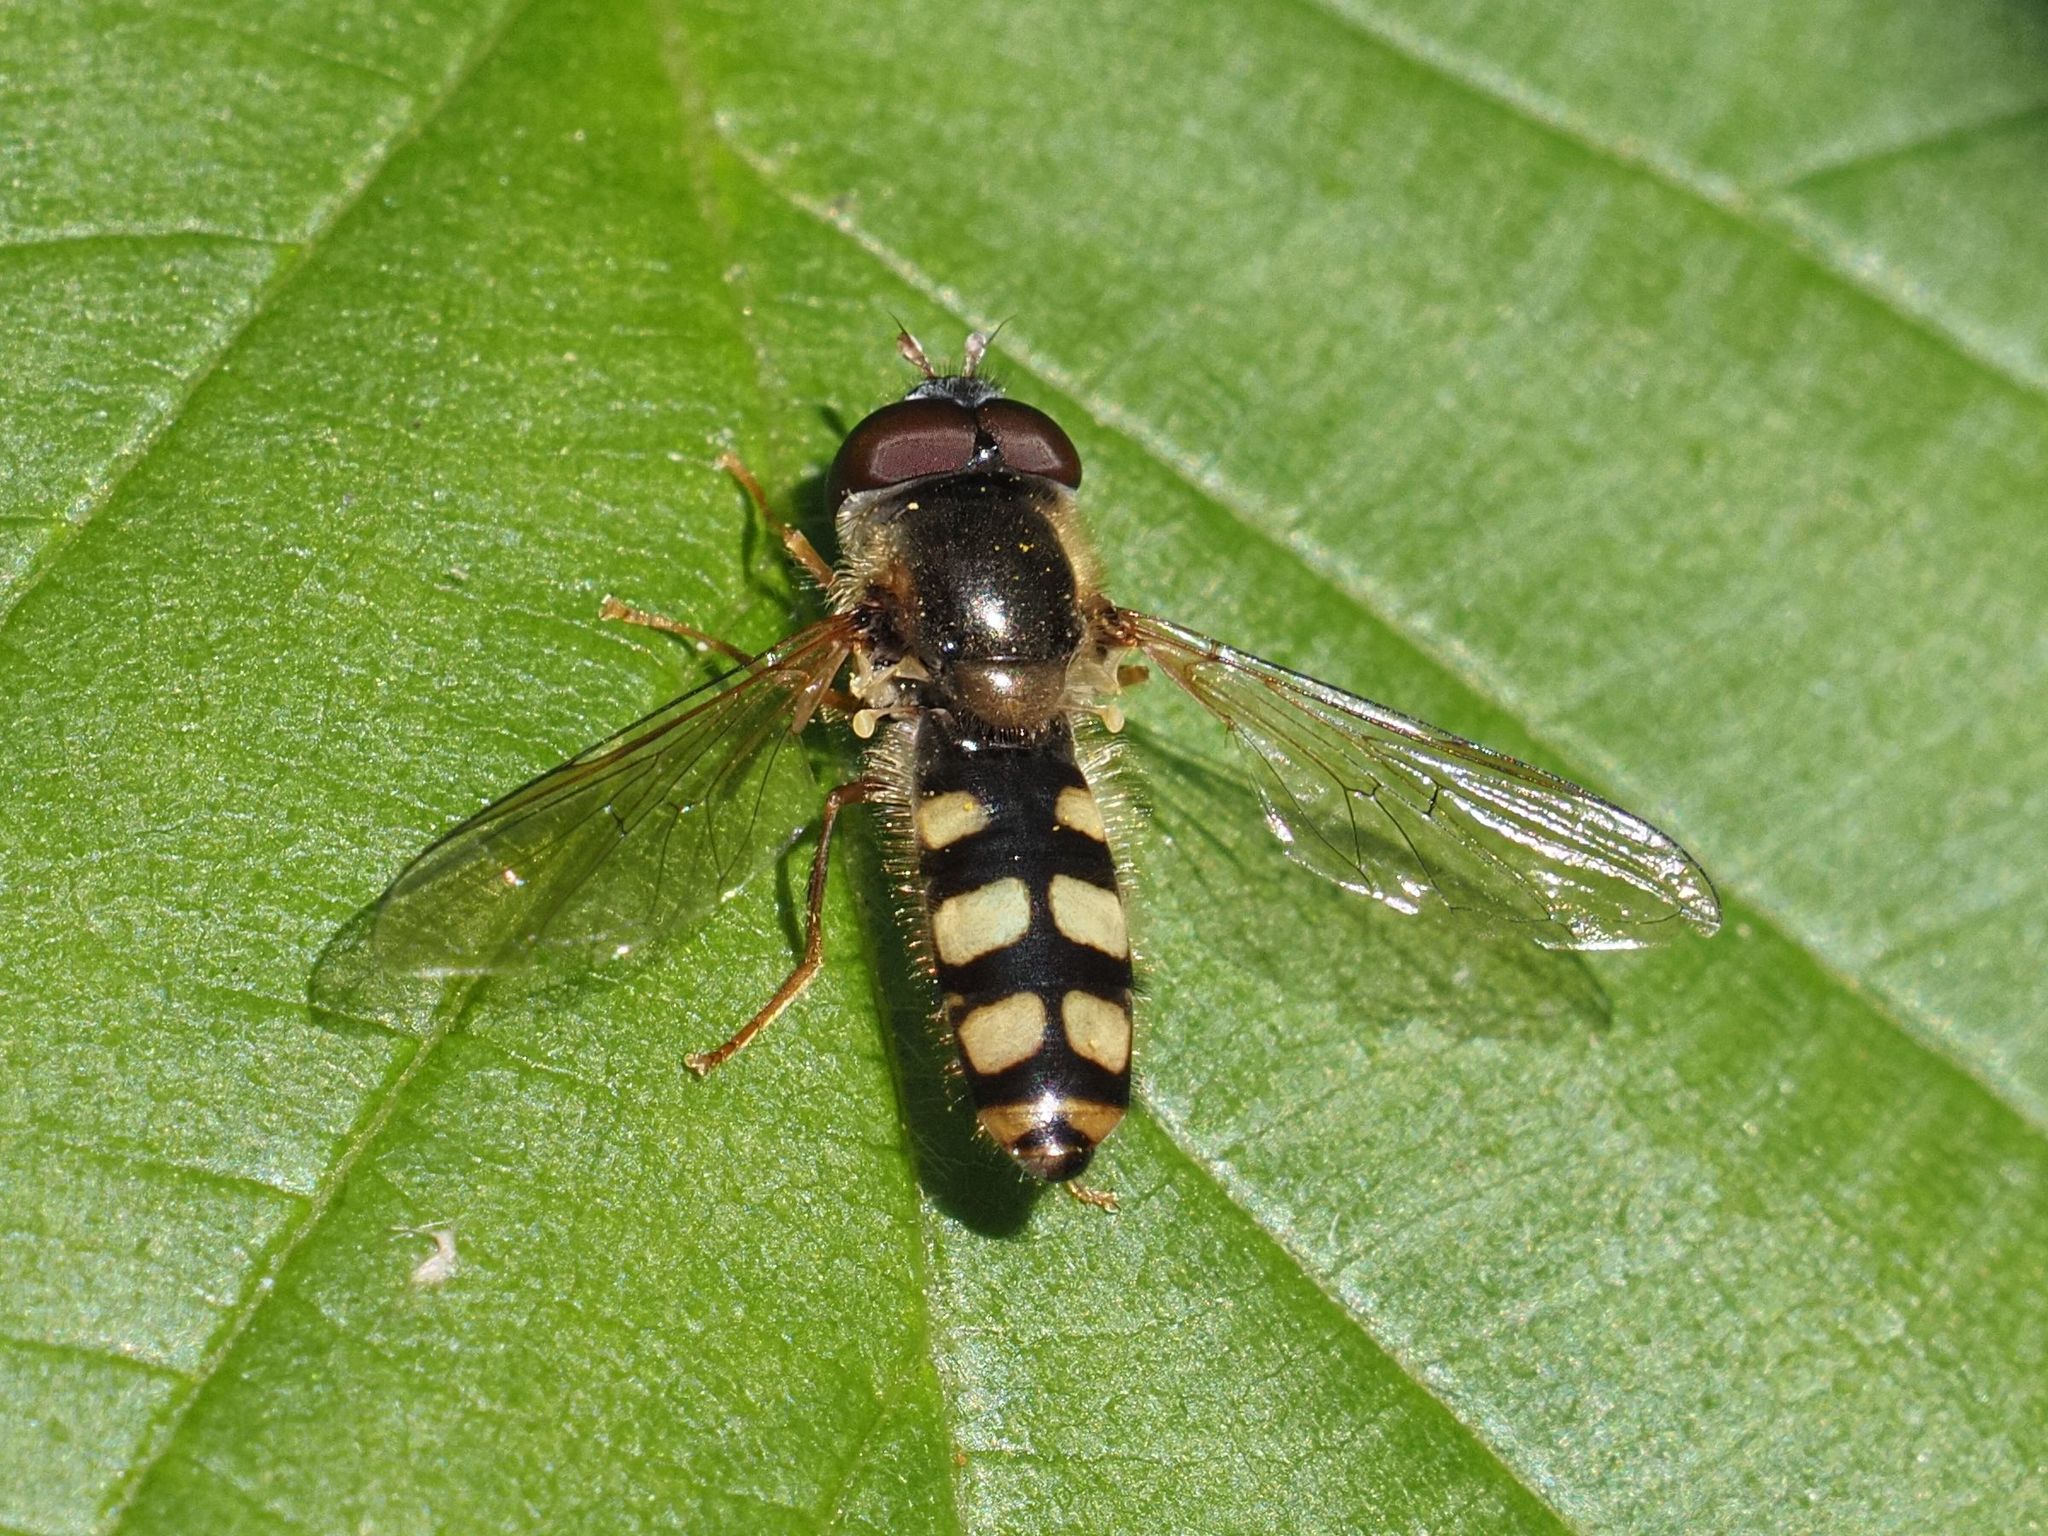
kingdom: Animalia
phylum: Arthropoda
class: Insecta
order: Diptera
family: Syrphidae
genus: Epistrophella
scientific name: Epistrophella euchromus
